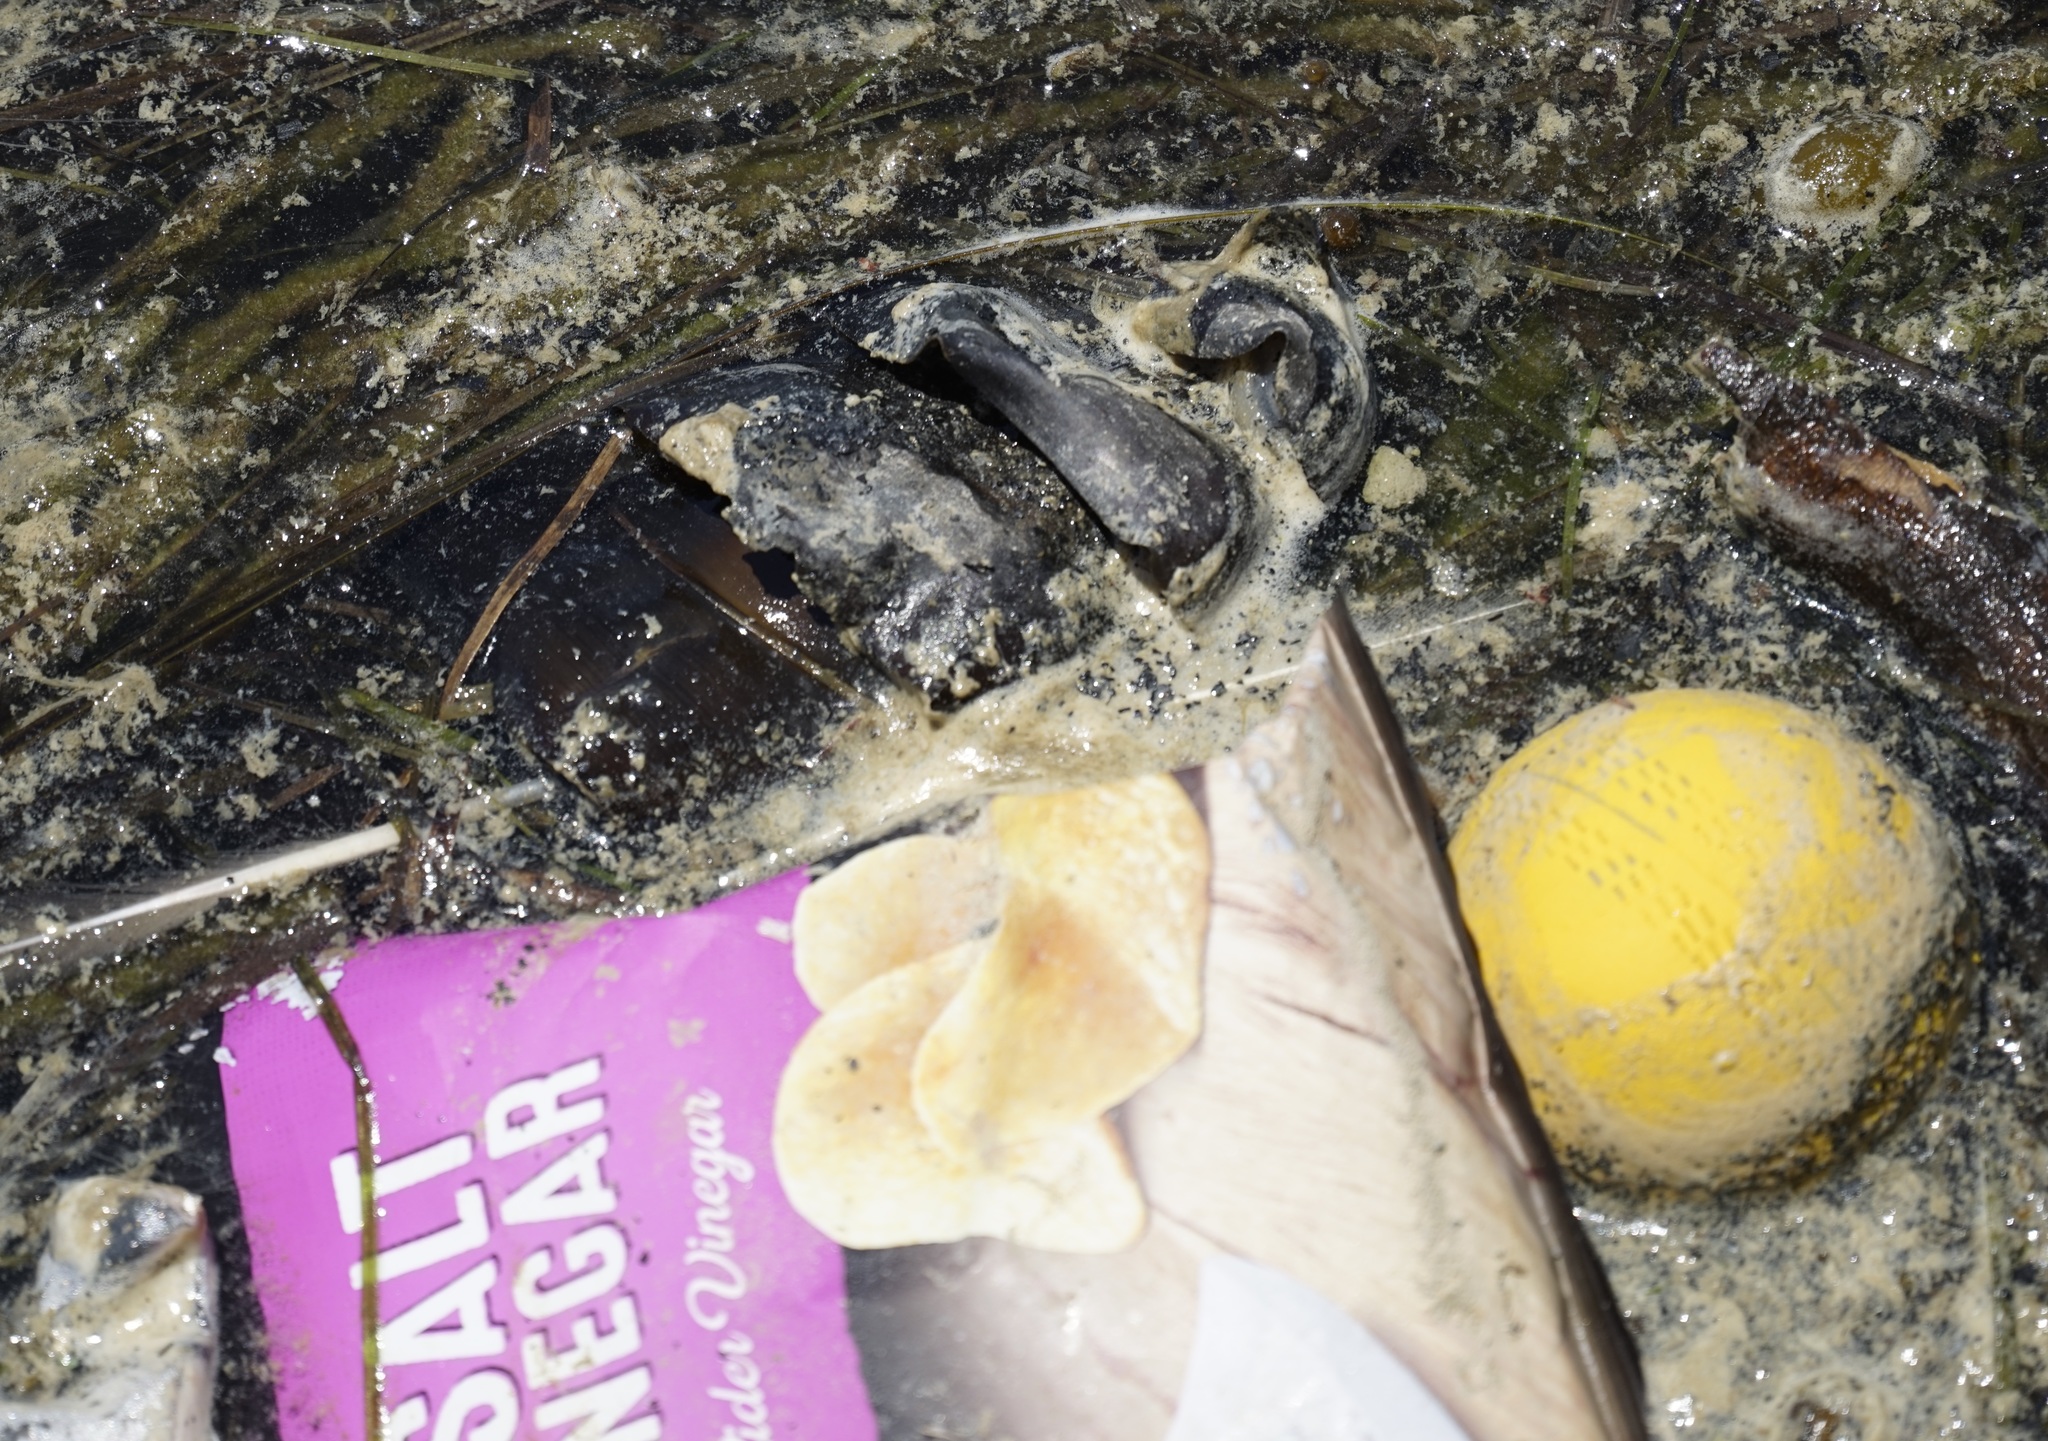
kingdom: Animalia
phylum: Chordata
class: Elasmobranchii
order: Heterodontiformes
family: Heterodontidae
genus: Heterodontus
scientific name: Heterodontus portusjacksoni
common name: Port jackson shark
